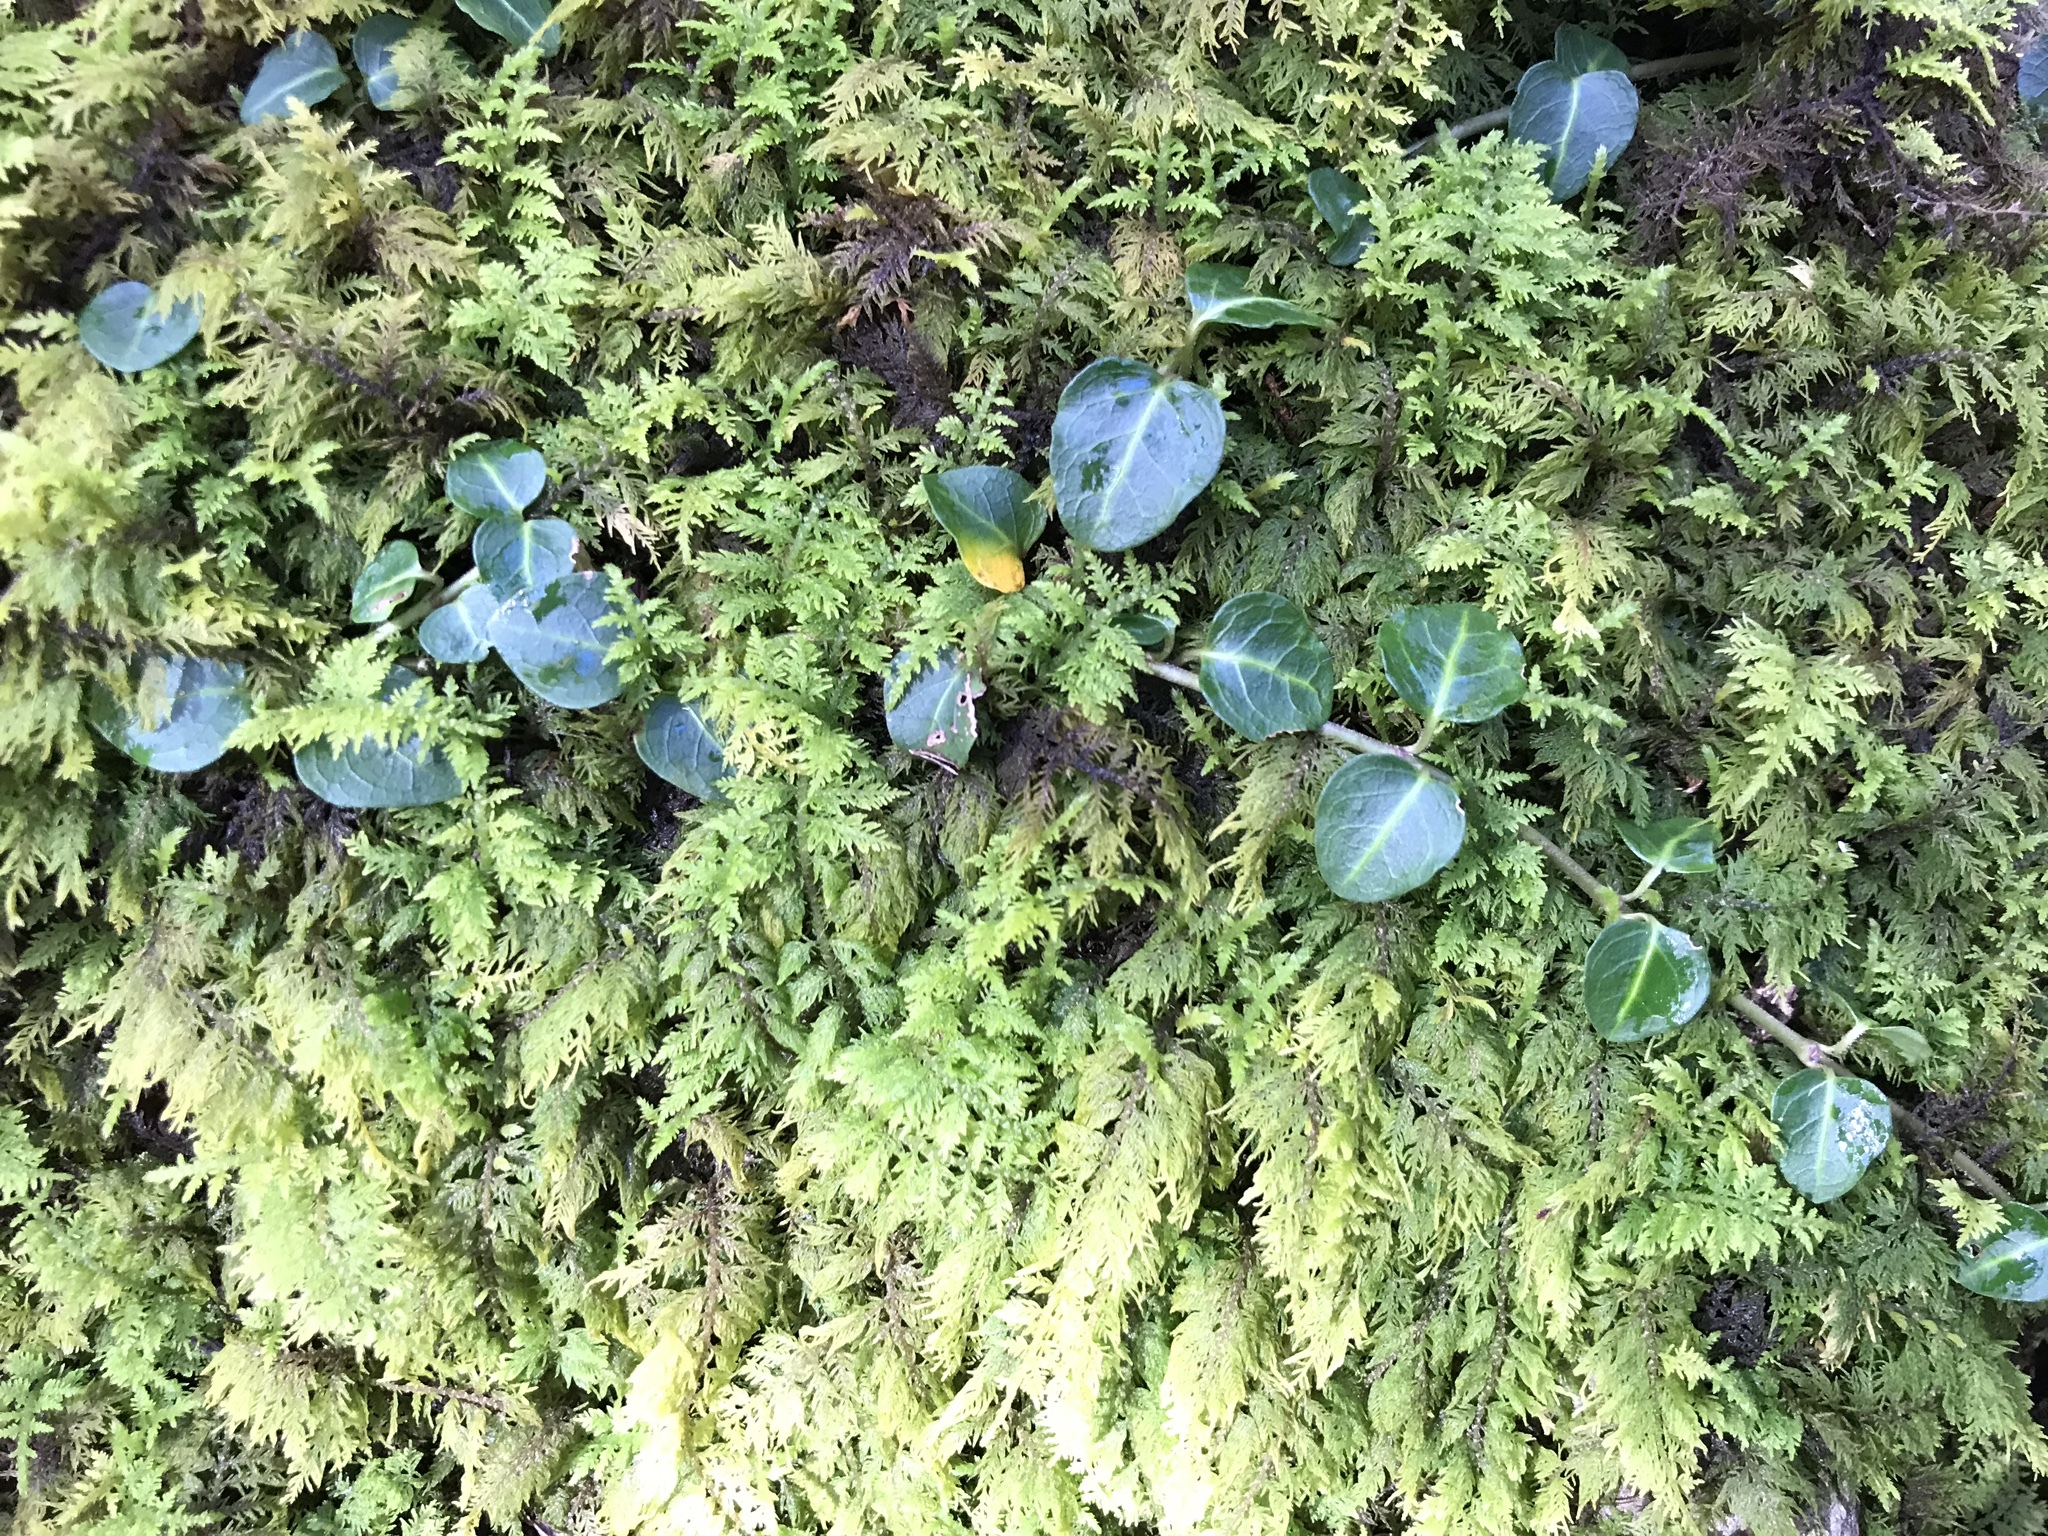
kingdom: Plantae
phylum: Tracheophyta
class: Magnoliopsida
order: Gentianales
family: Rubiaceae
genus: Mitchella
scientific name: Mitchella repens
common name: Partridge-berry
